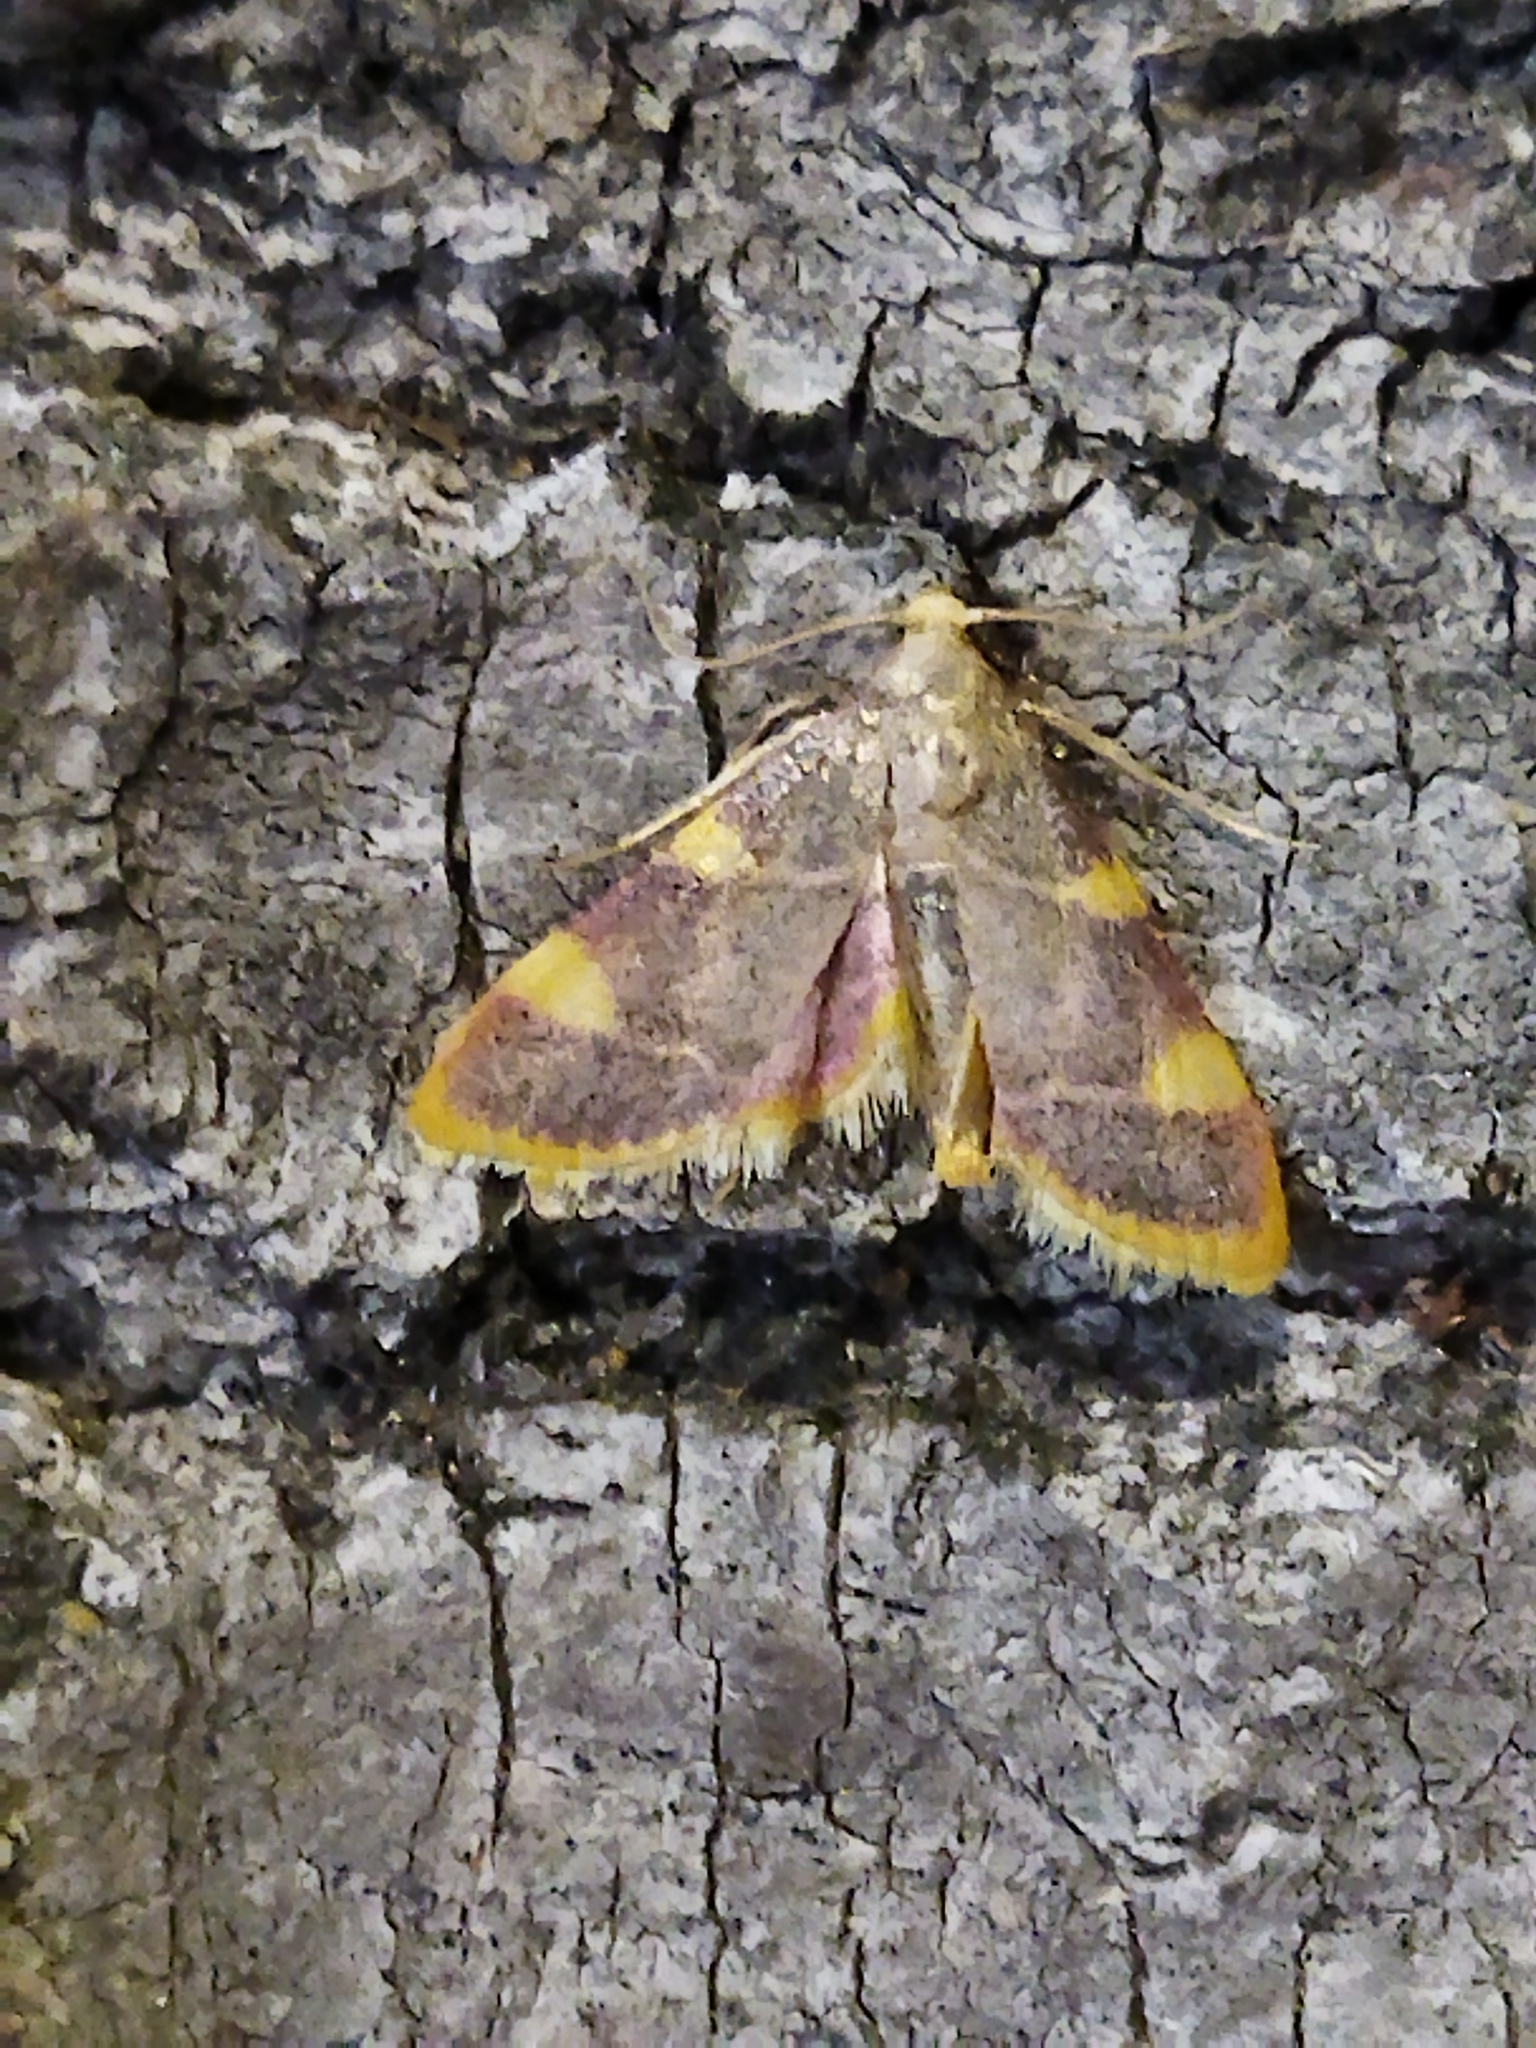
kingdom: Animalia
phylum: Arthropoda
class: Insecta
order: Lepidoptera
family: Pyralidae
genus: Hypsopygia
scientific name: Hypsopygia costalis
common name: Gold triangle
